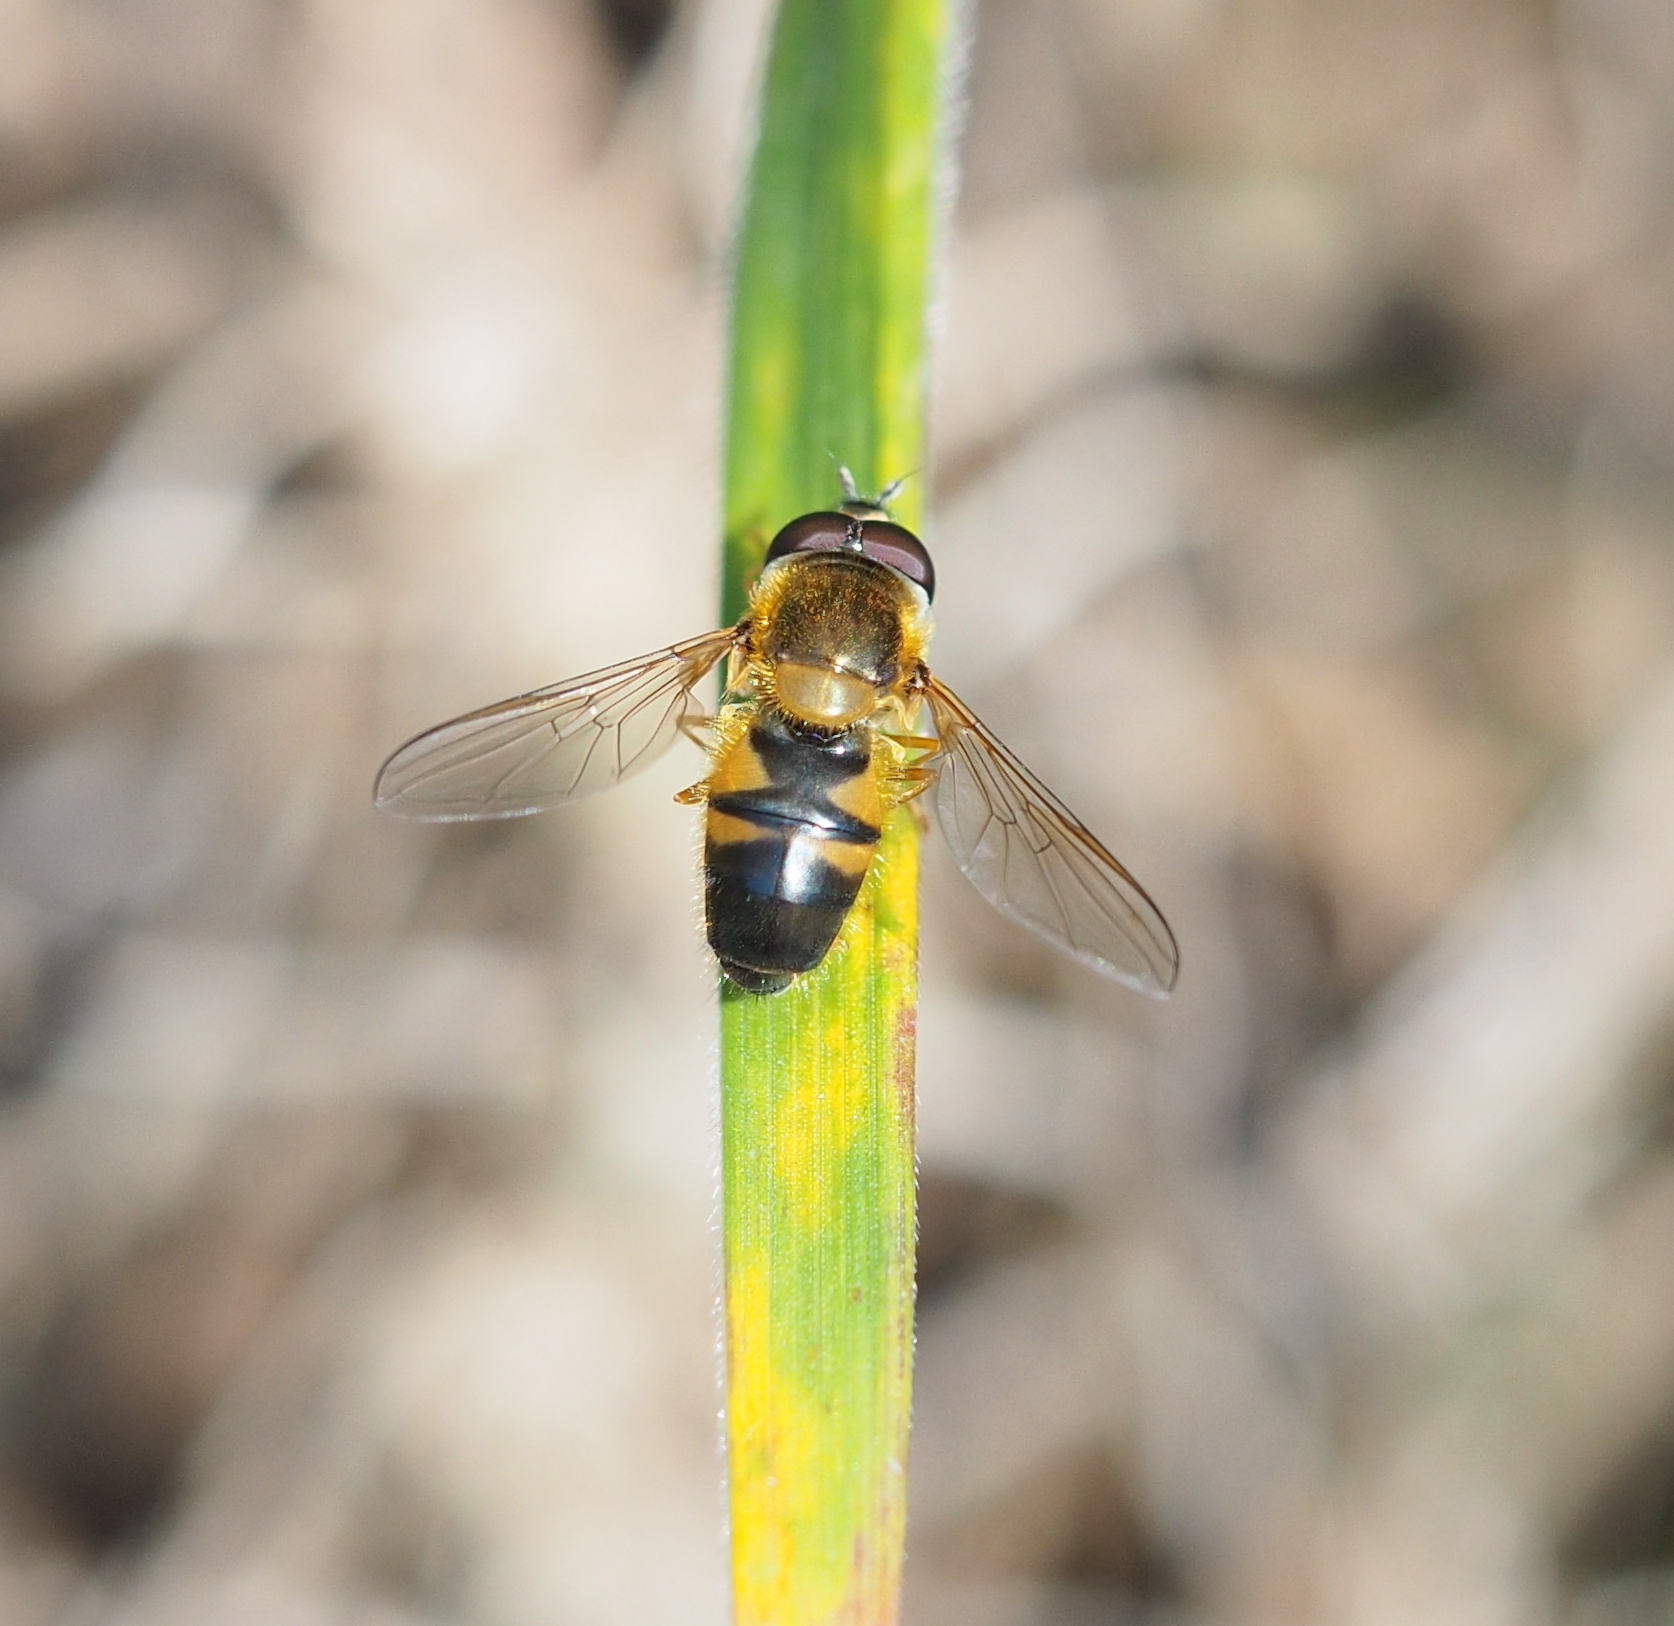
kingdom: Animalia
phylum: Arthropoda
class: Insecta
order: Diptera
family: Syrphidae
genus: Epistrophe
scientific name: Epistrophe eligans
